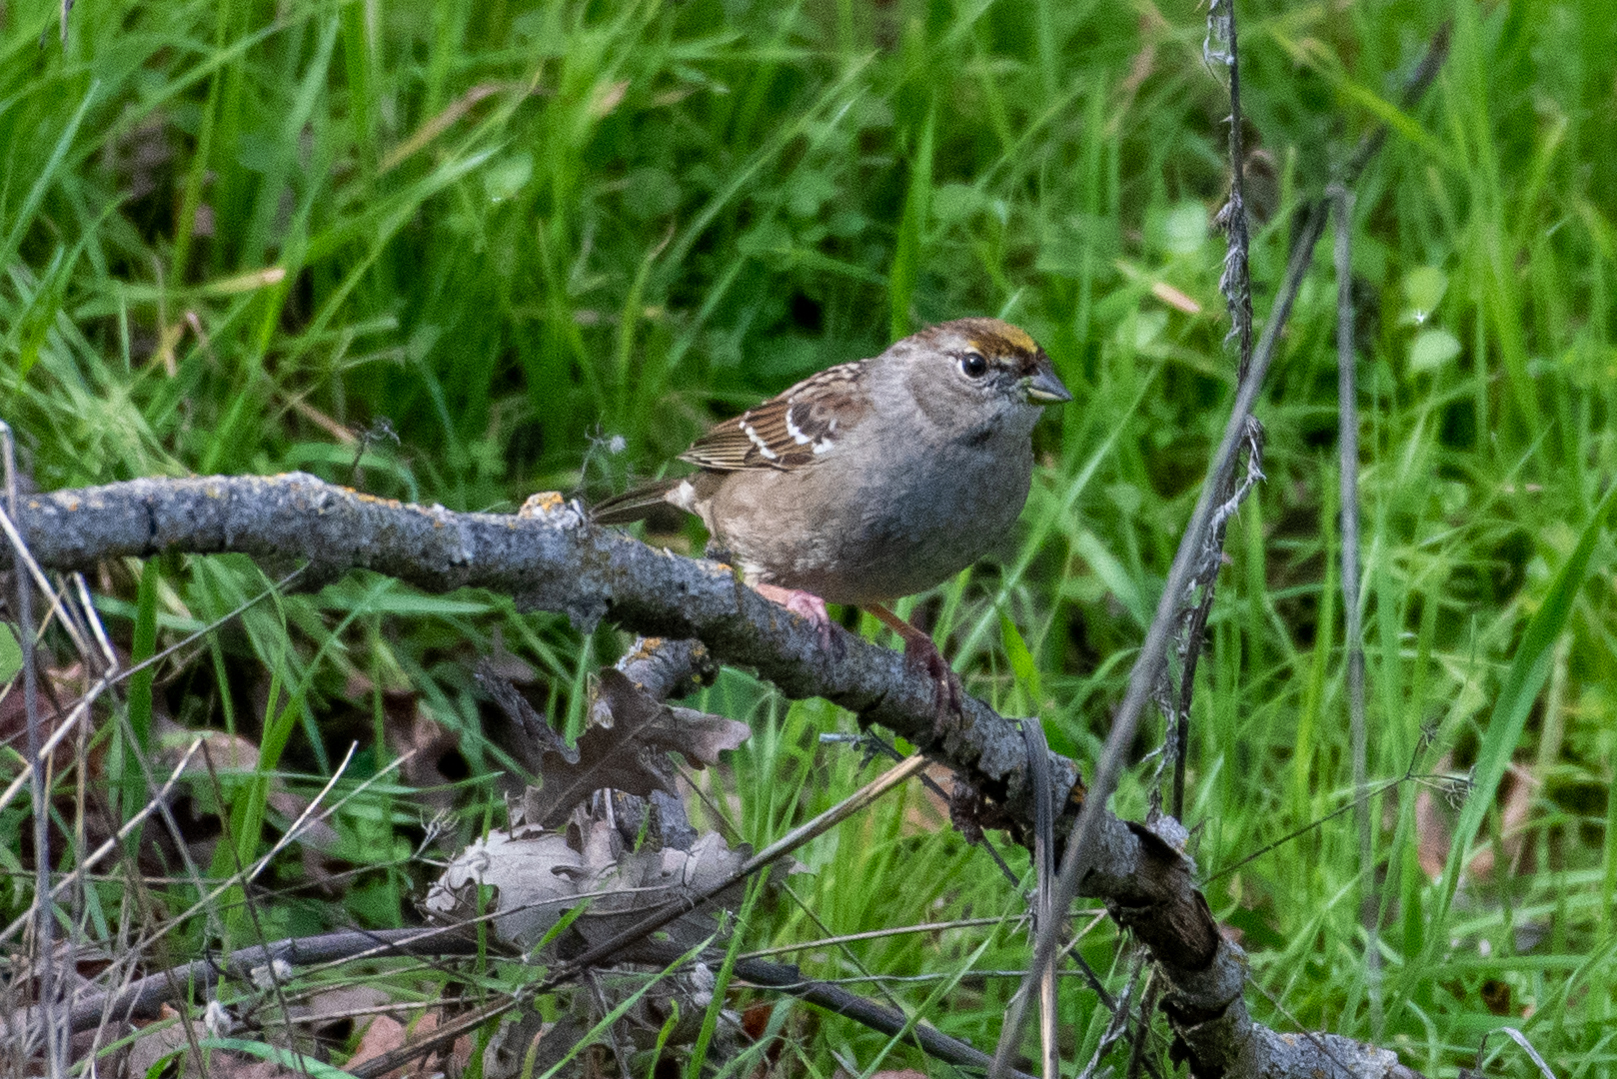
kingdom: Animalia
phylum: Chordata
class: Aves
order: Passeriformes
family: Passerellidae
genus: Zonotrichia
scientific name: Zonotrichia atricapilla
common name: Golden-crowned sparrow
